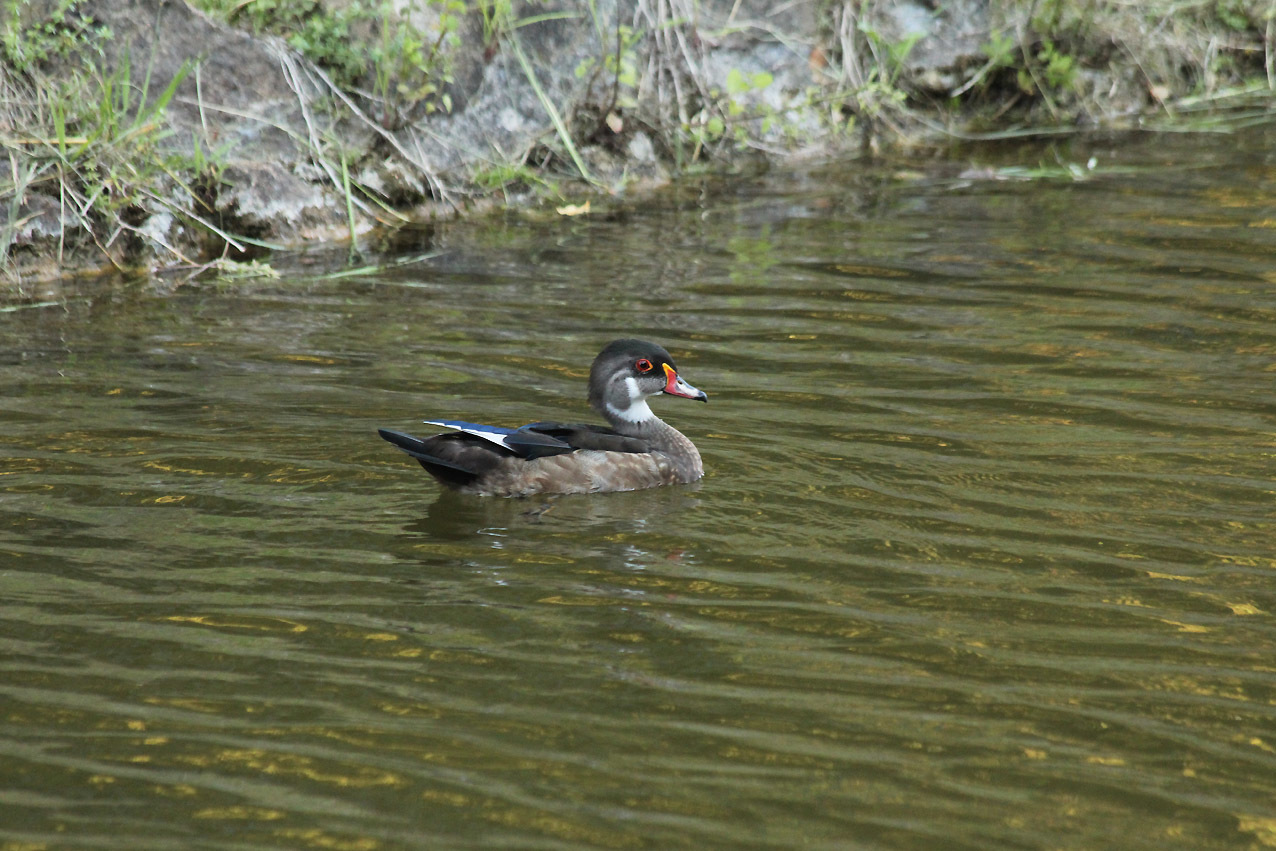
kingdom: Animalia
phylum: Chordata
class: Aves
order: Anseriformes
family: Anatidae
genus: Aix
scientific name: Aix sponsa
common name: Wood duck
